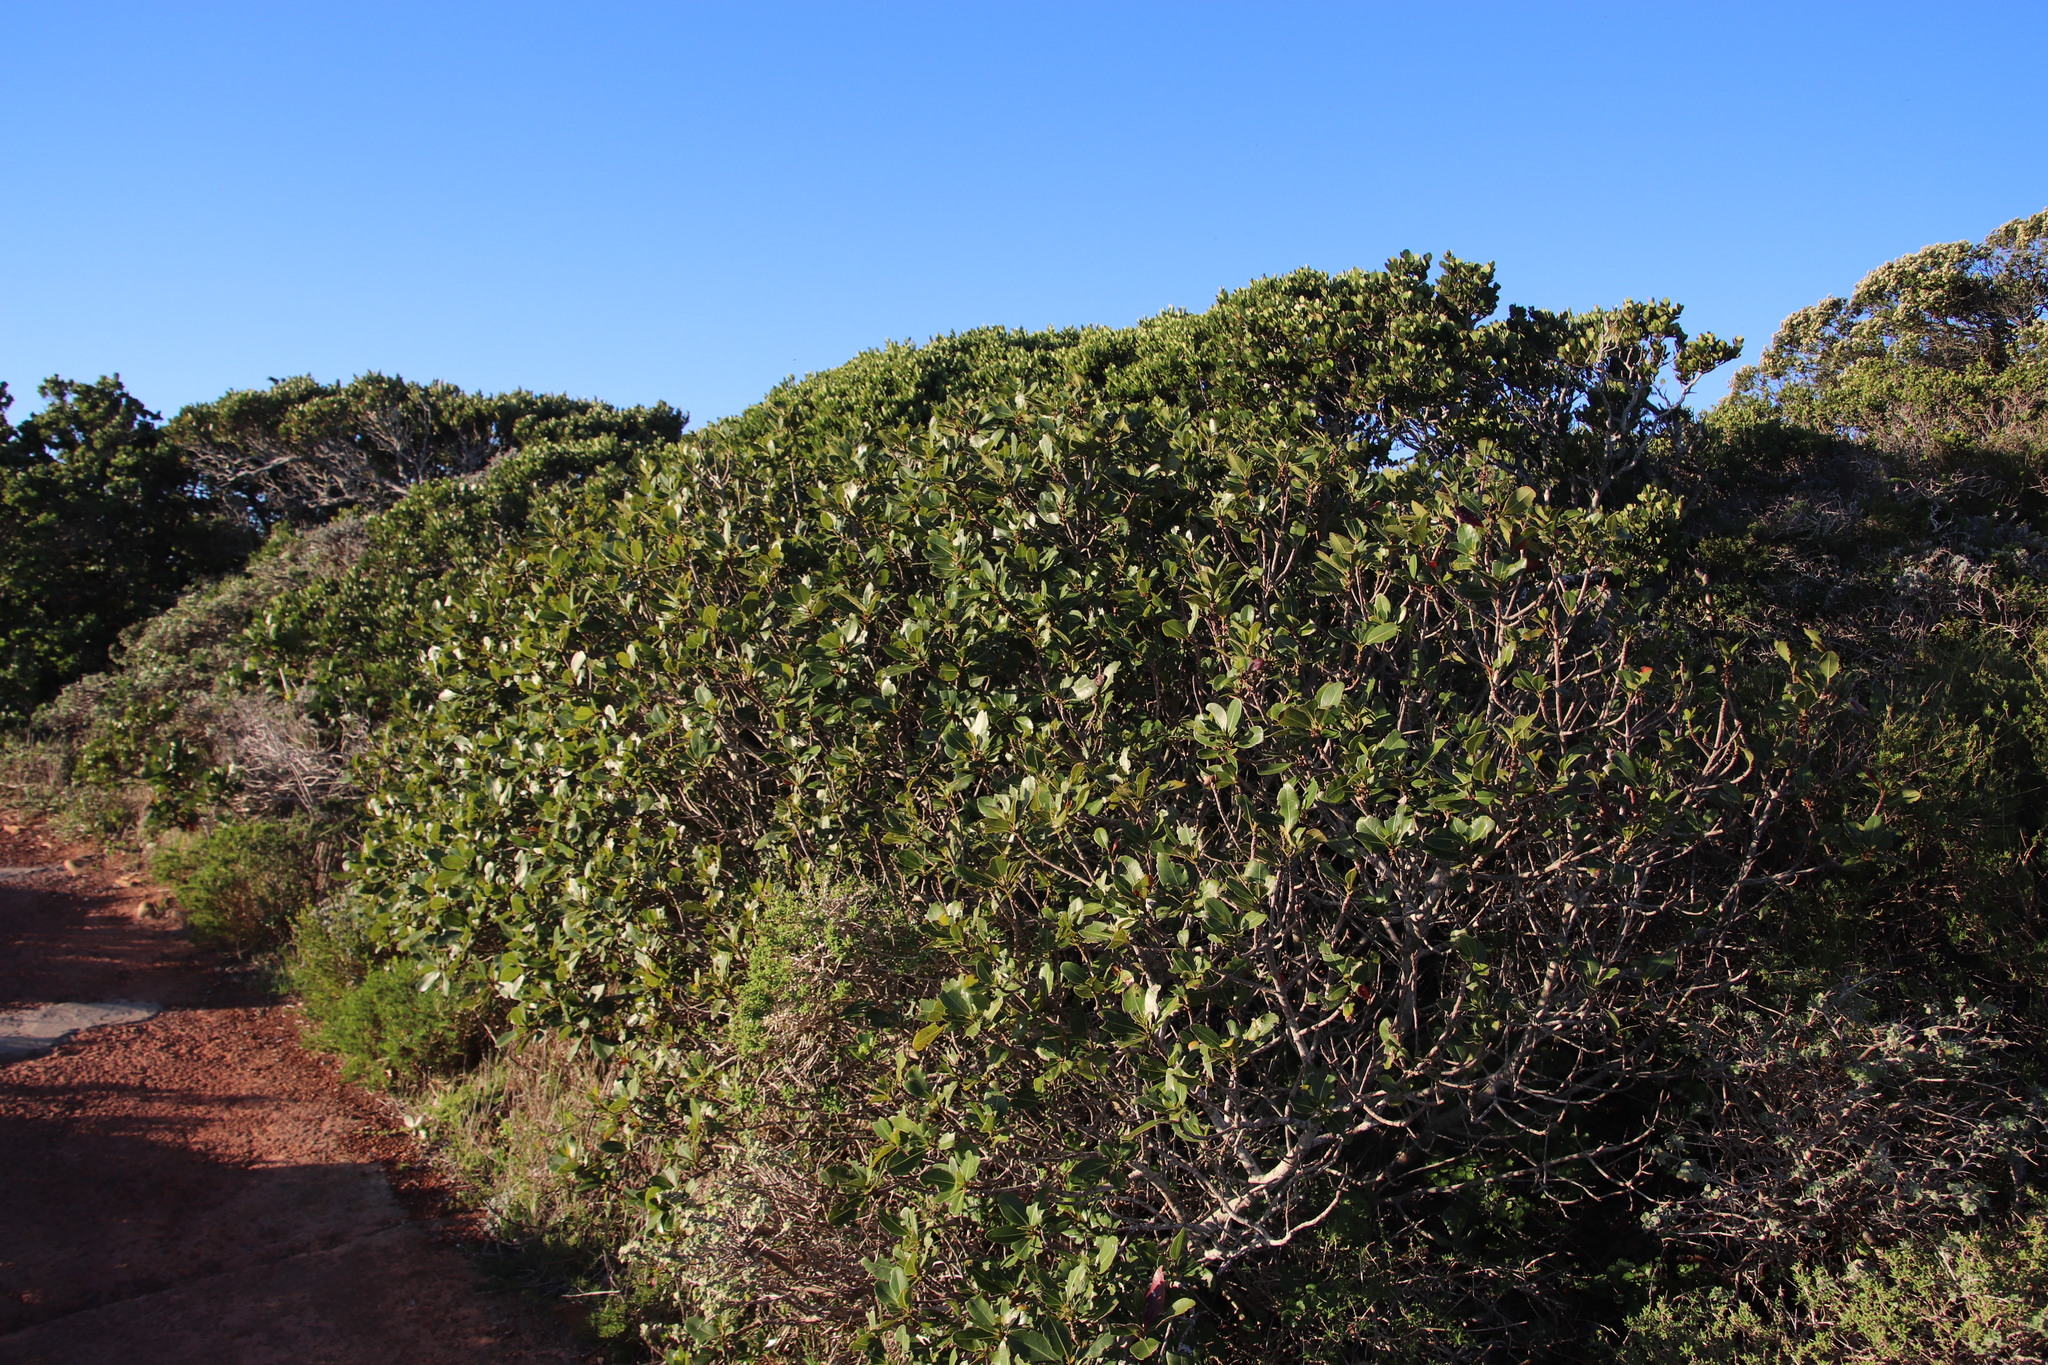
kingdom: Plantae
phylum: Tracheophyta
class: Magnoliopsida
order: Ericales
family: Sapotaceae
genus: Sideroxylon
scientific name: Sideroxylon inerme
